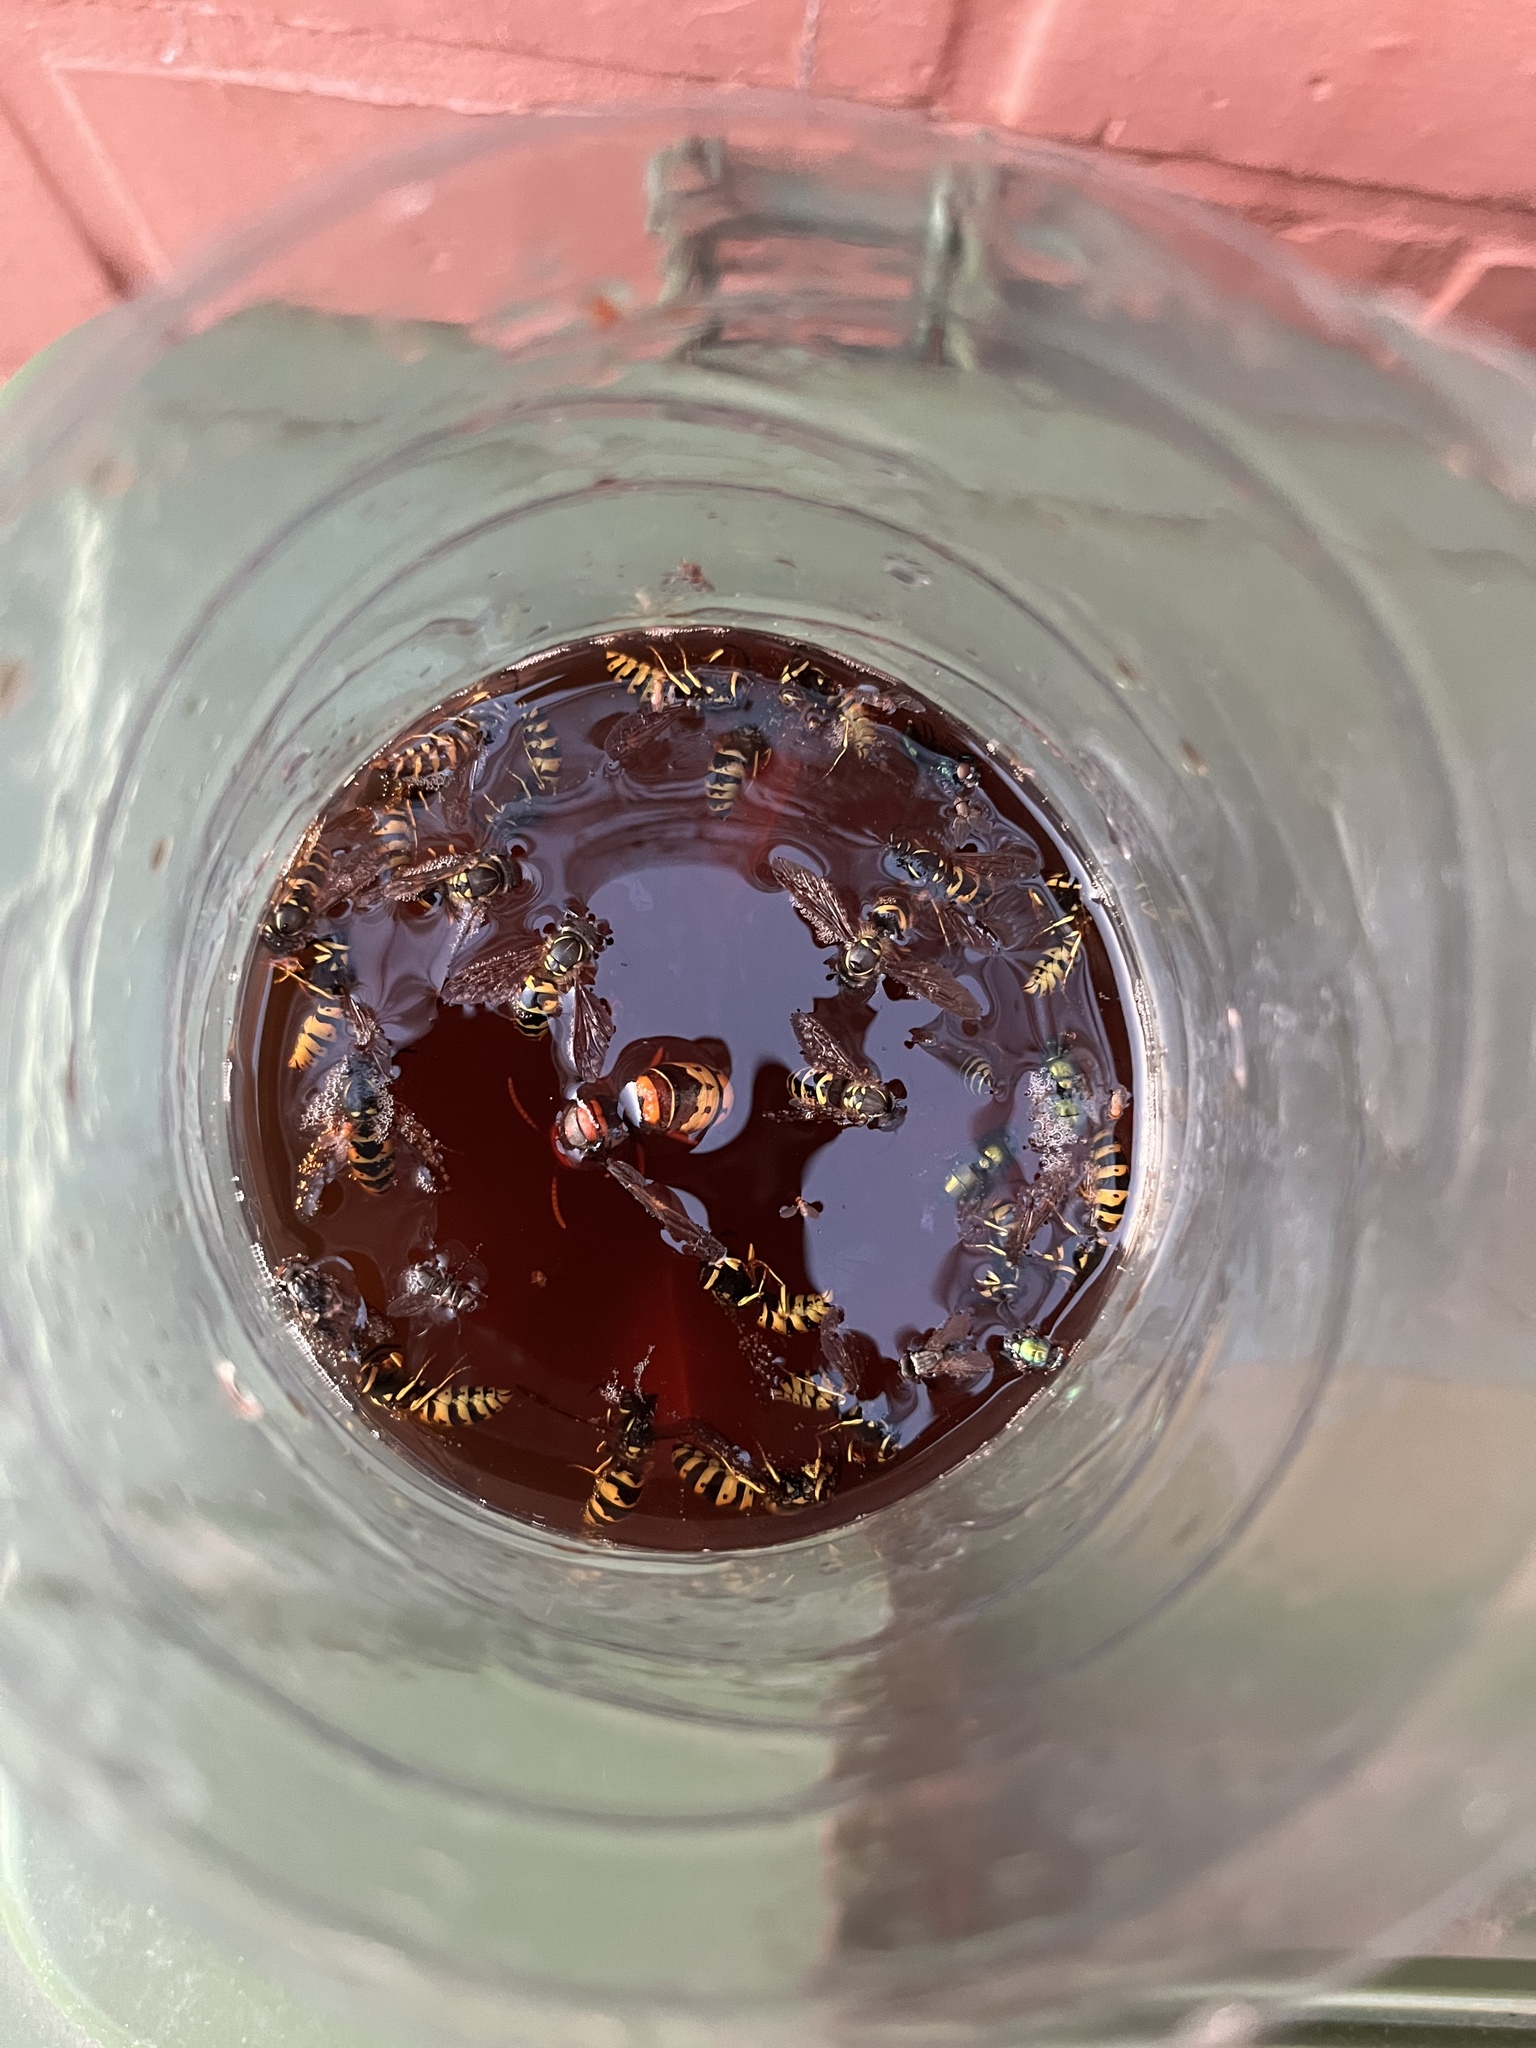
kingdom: Animalia
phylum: Arthropoda
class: Insecta
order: Hymenoptera
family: Vespidae
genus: Vespa
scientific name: Vespa crabro
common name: Hornet
